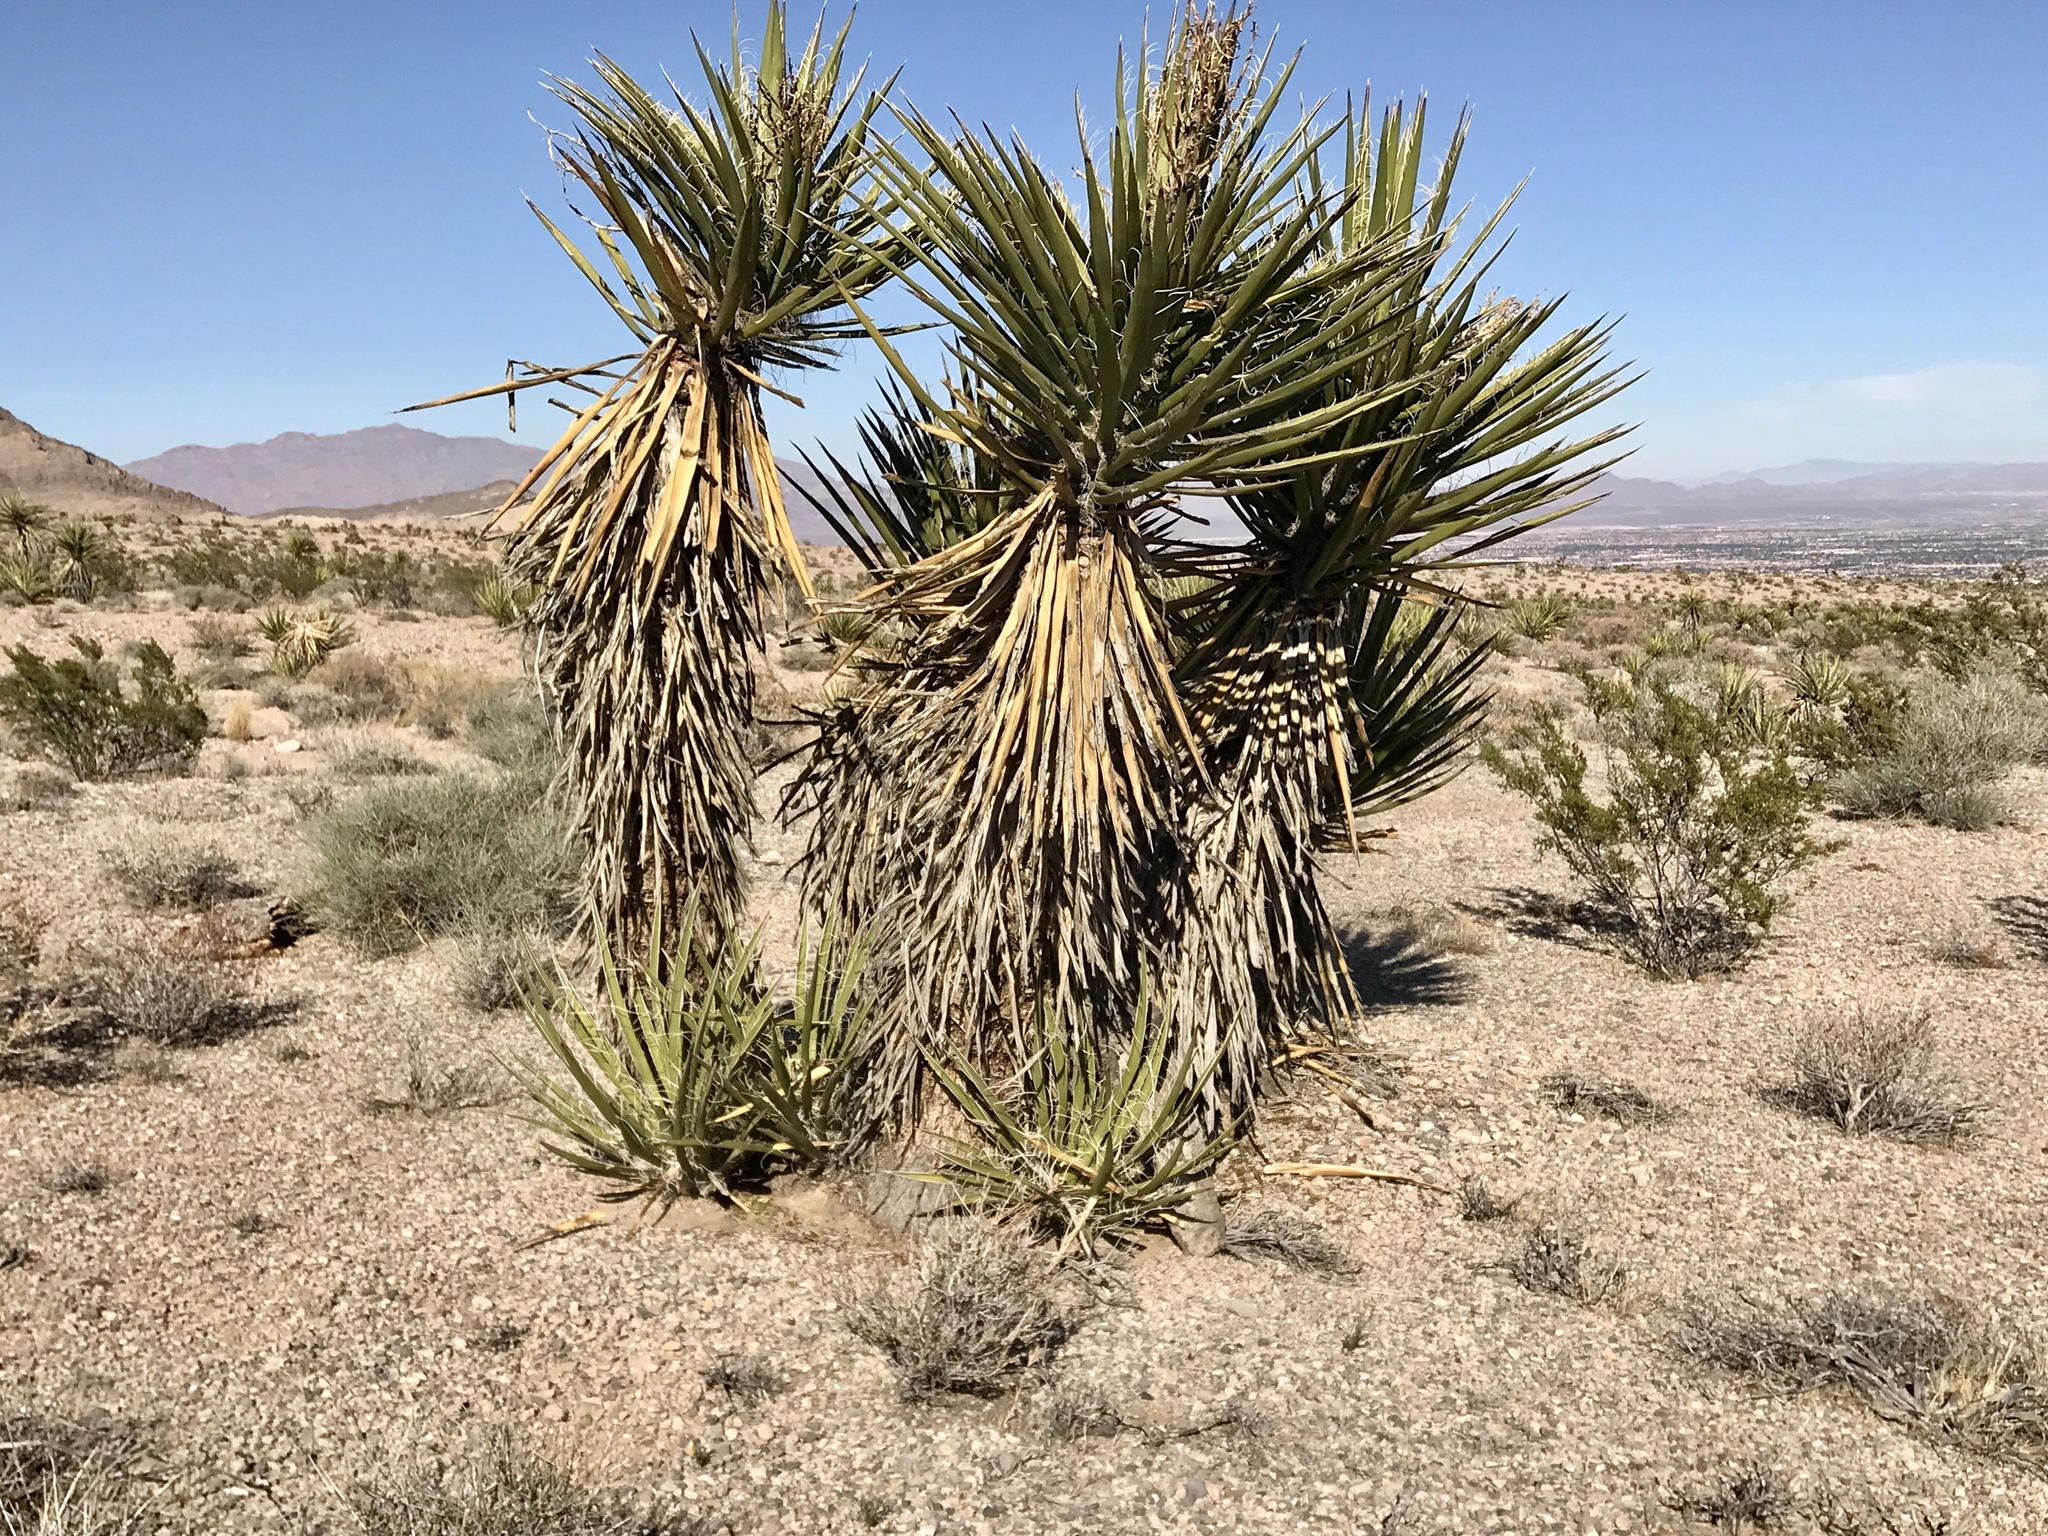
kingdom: Plantae
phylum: Tracheophyta
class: Liliopsida
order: Asparagales
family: Asparagaceae
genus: Yucca
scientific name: Yucca schidigera
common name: Mojave yucca
